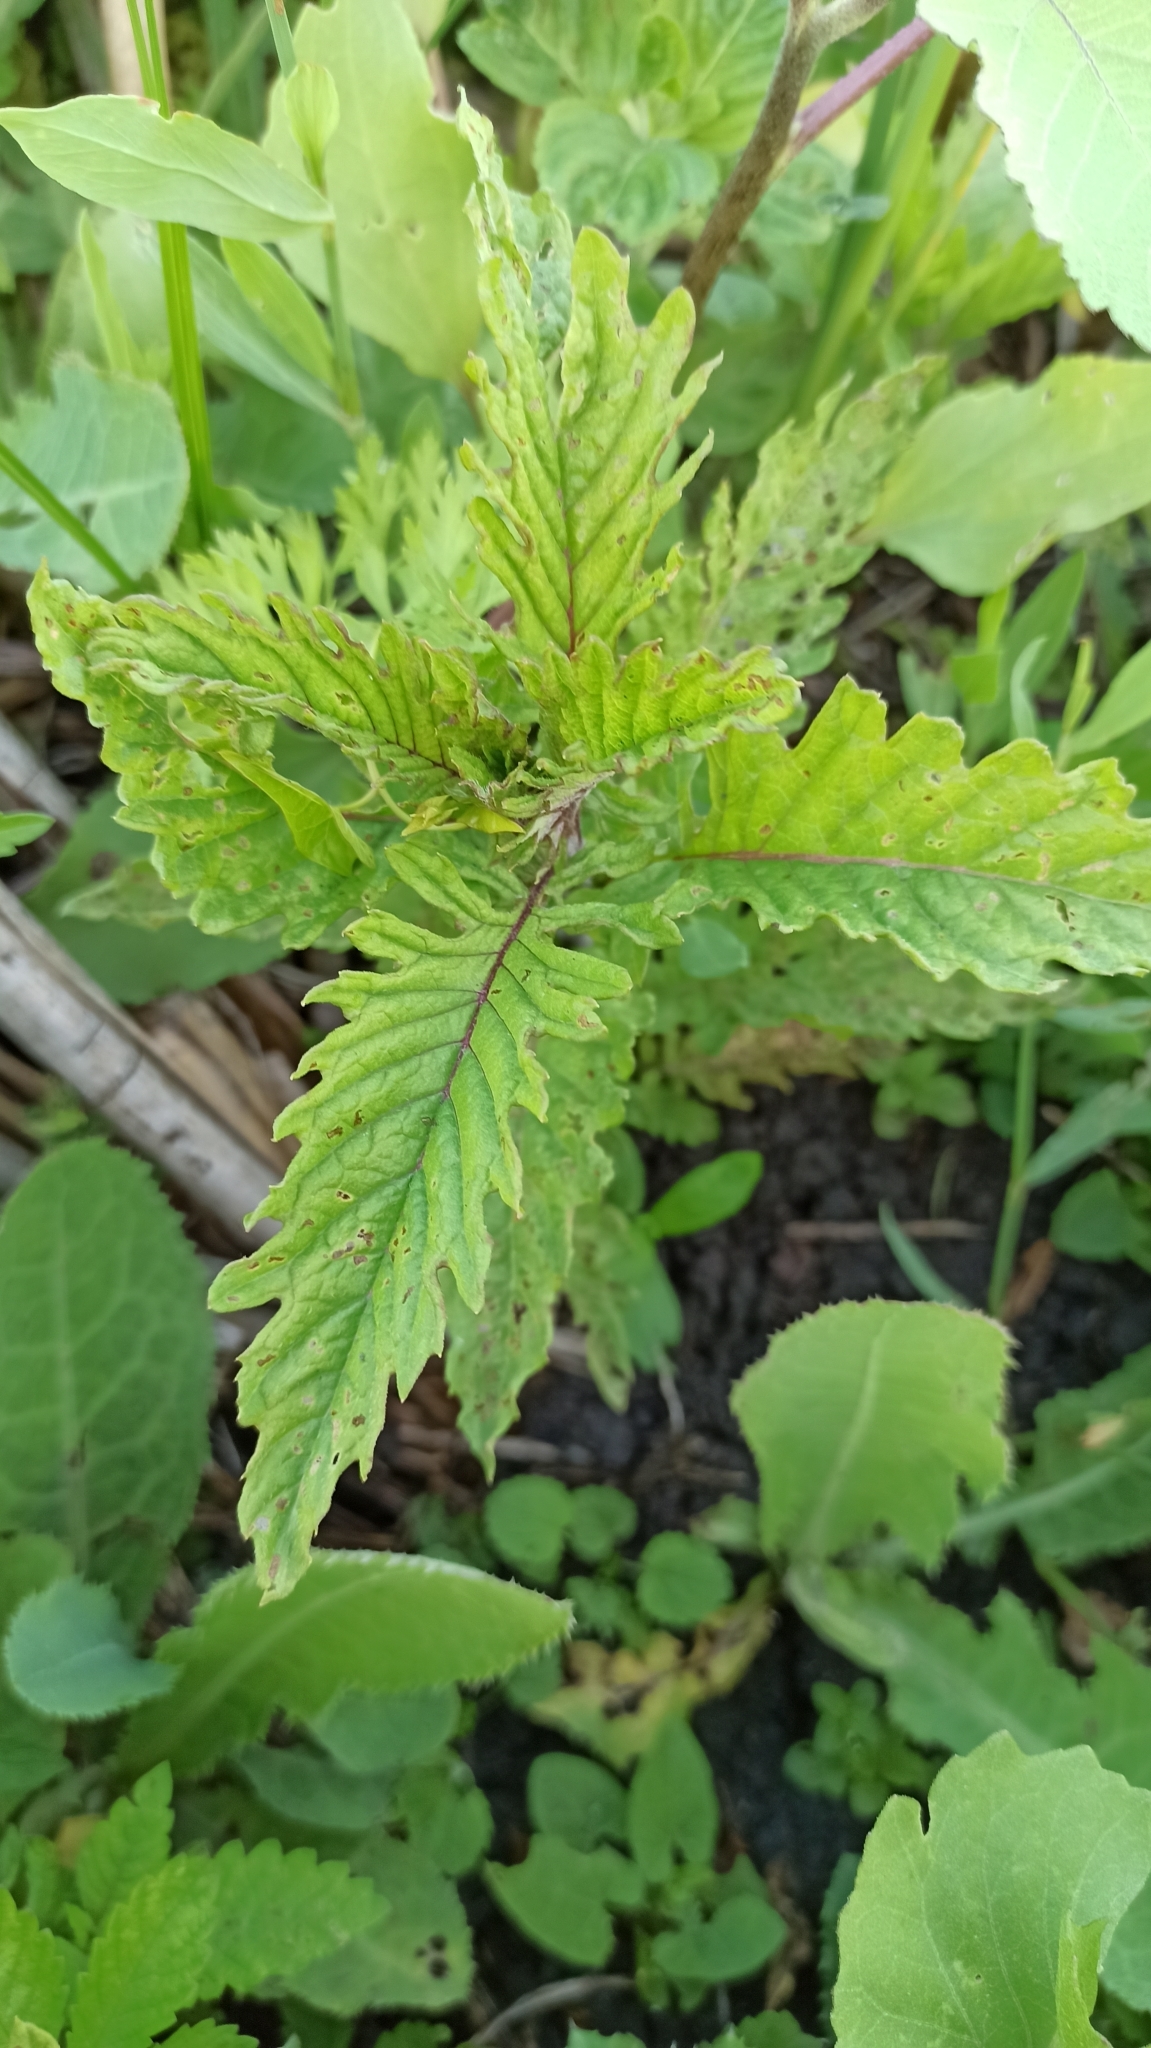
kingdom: Plantae
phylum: Tracheophyta
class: Magnoliopsida
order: Lamiales
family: Lamiaceae
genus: Lycopus
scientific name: Lycopus europaeus
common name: European bugleweed
